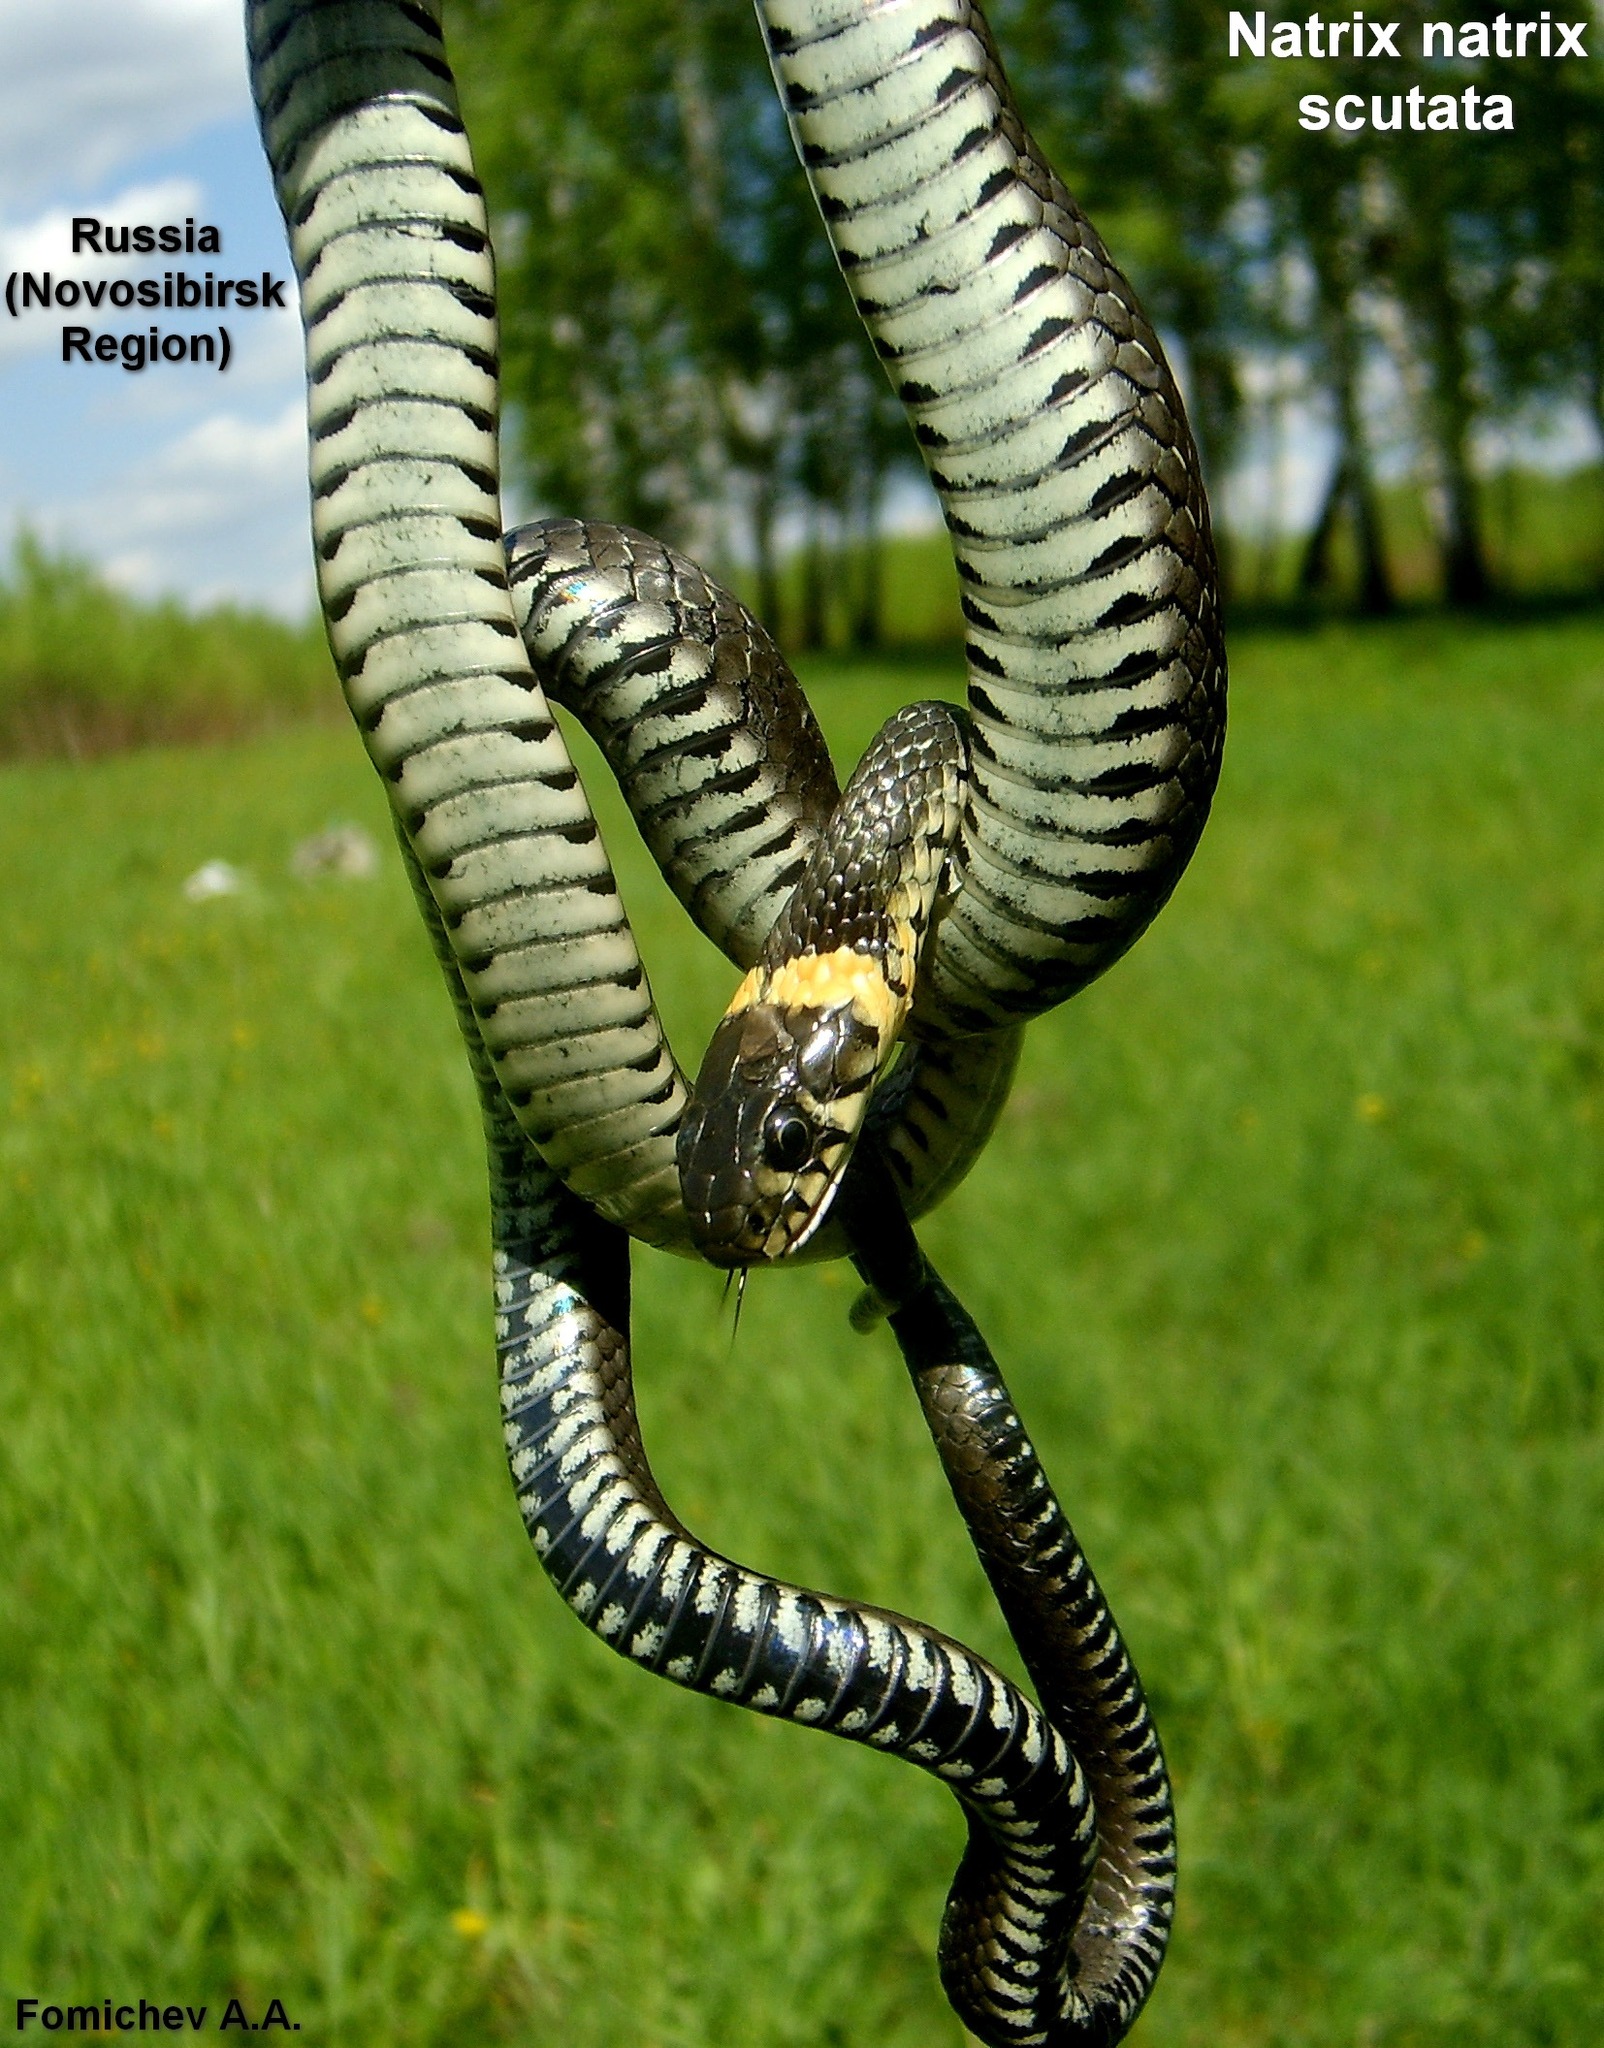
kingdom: Animalia
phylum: Chordata
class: Squamata
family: Colubridae
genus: Natrix
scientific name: Natrix natrix
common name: Grass snake
